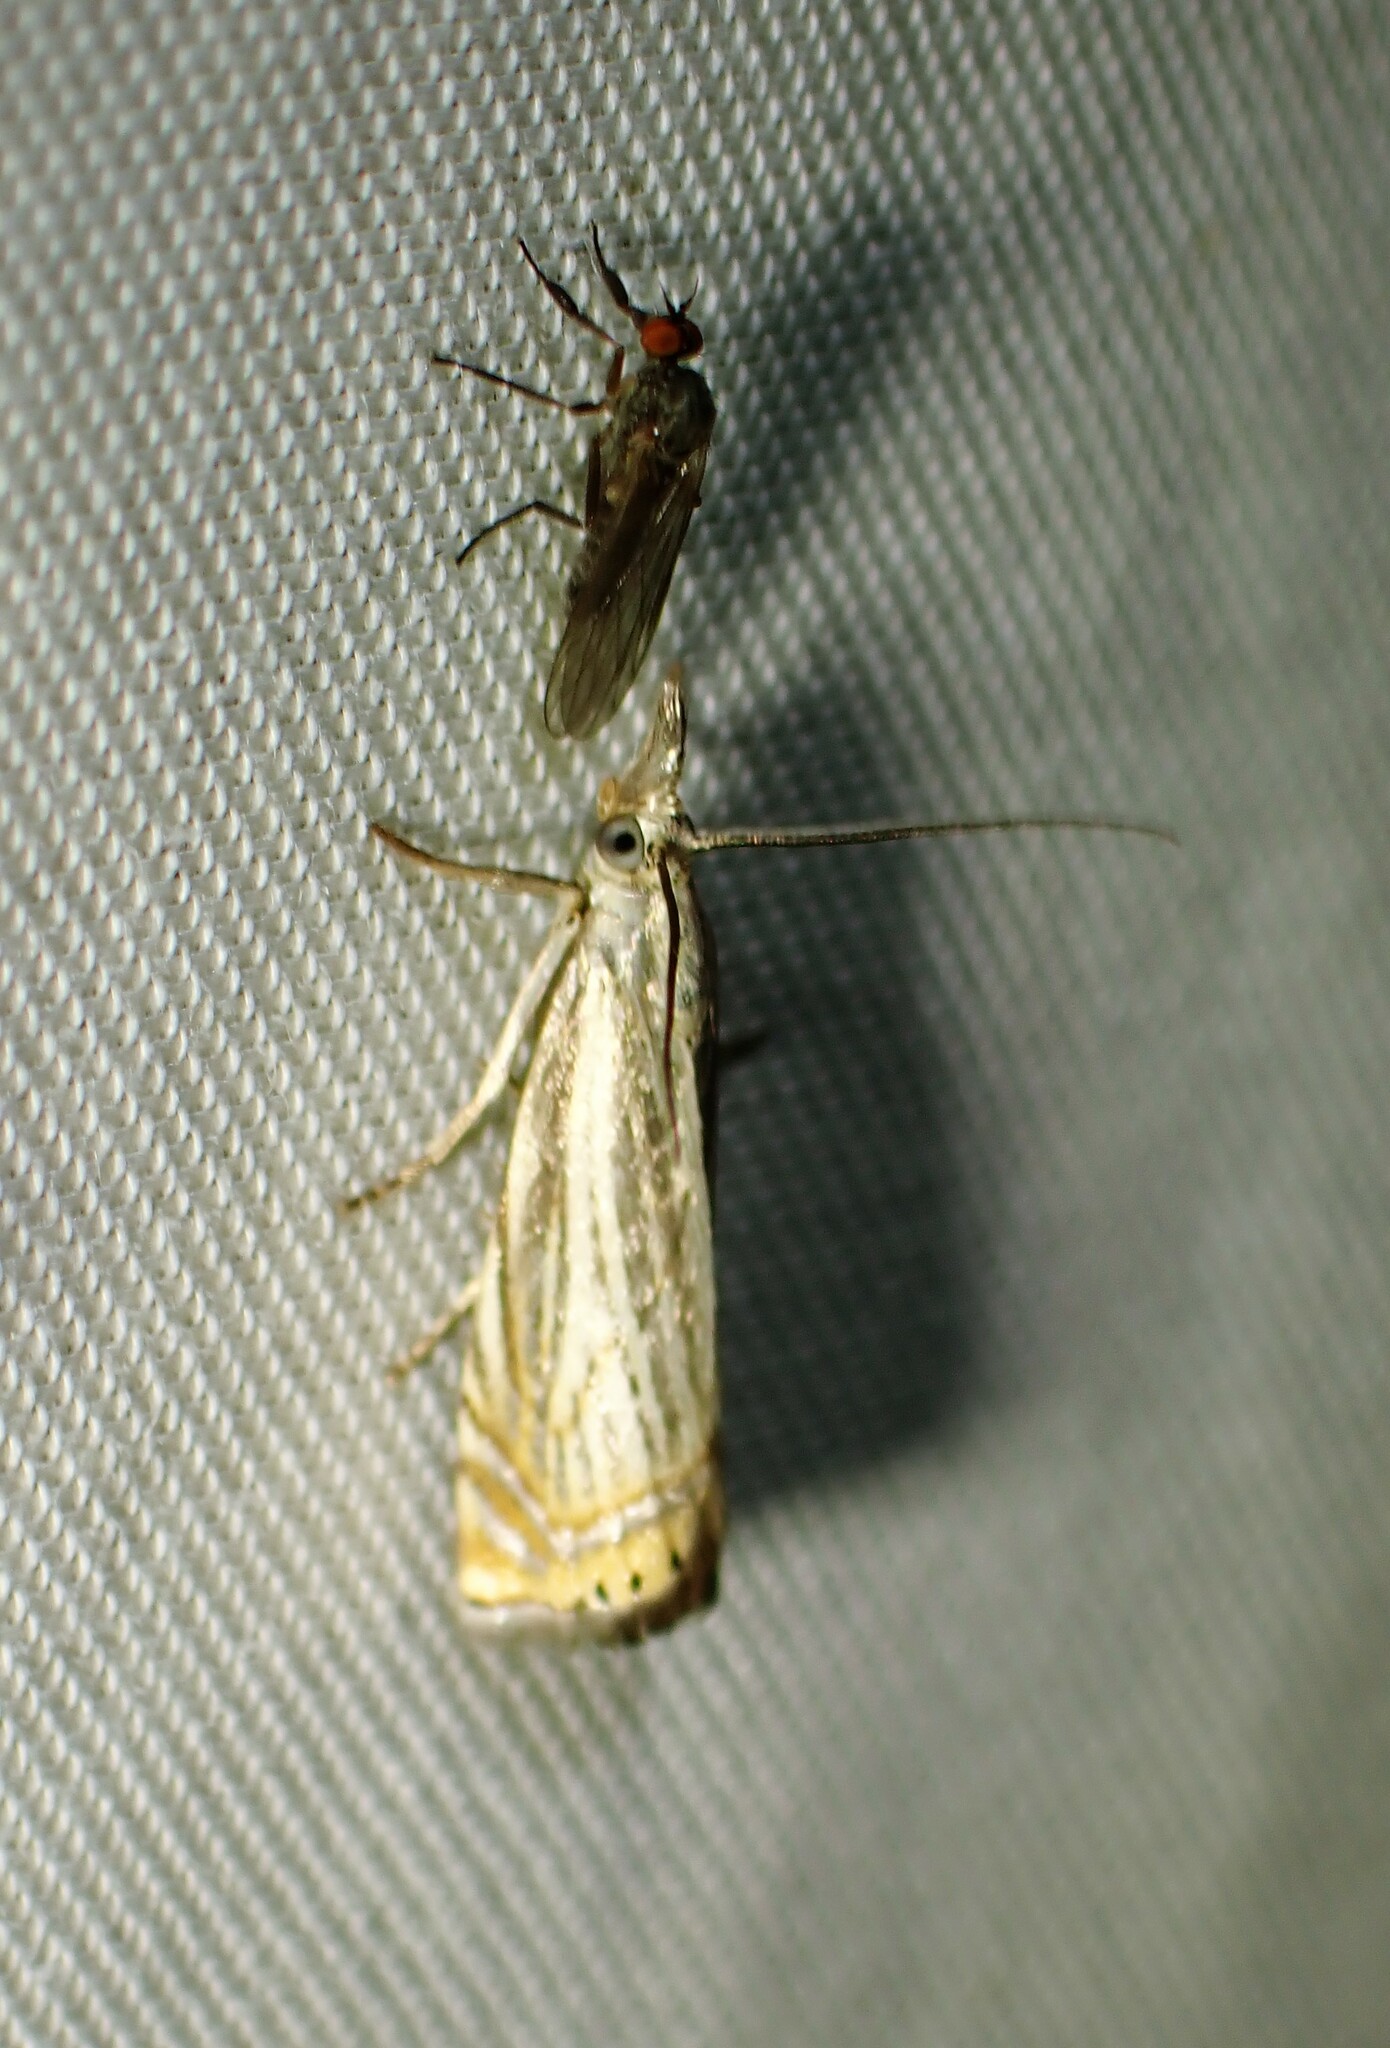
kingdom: Animalia
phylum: Arthropoda
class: Insecta
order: Lepidoptera
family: Crambidae
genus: Chrysoteuchia
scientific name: Chrysoteuchia topiarius
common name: Topiary grass-veneer
